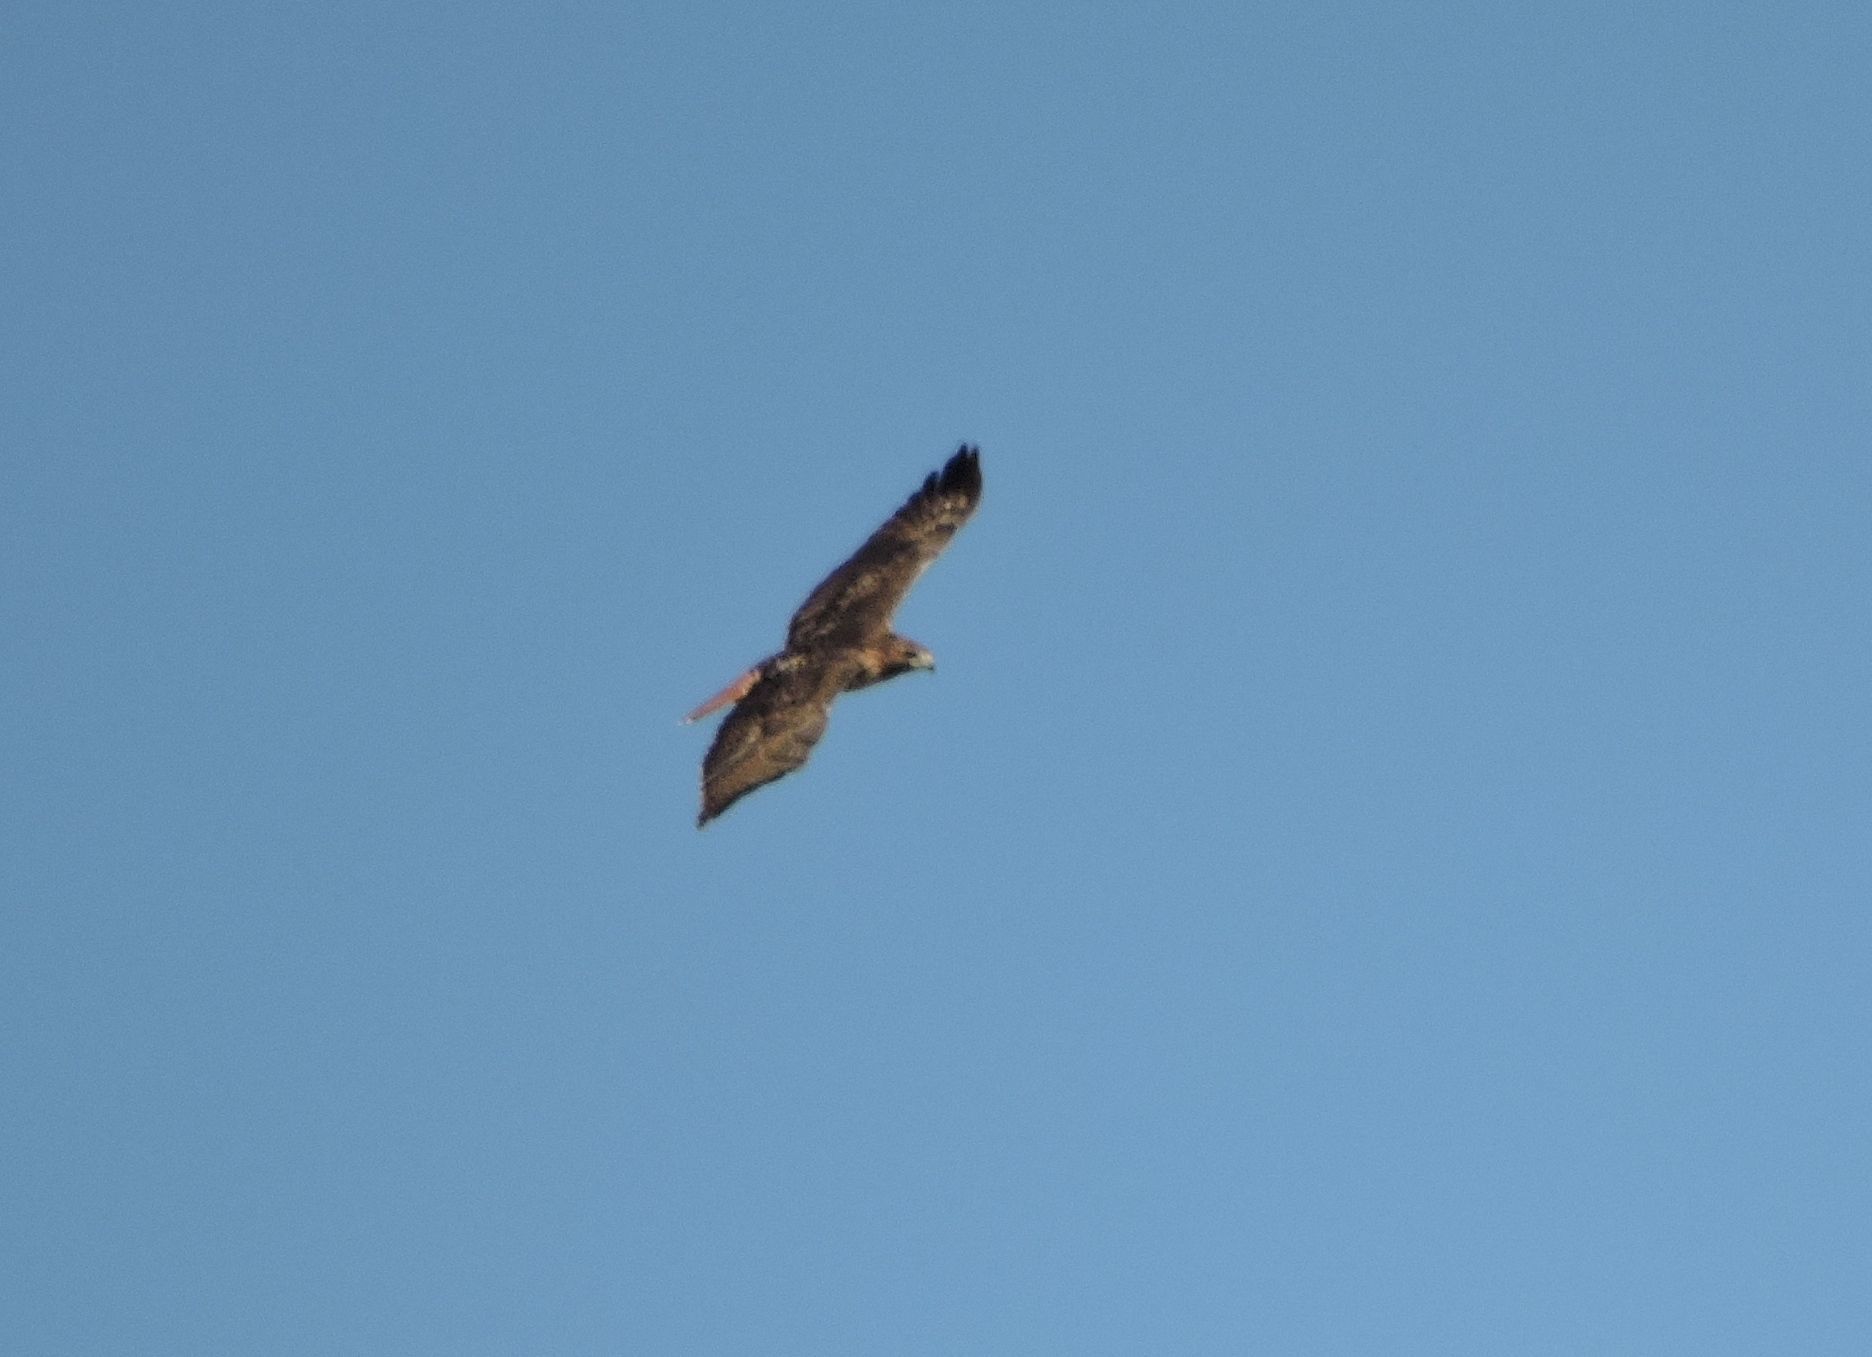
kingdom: Animalia
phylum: Chordata
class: Aves
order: Accipitriformes
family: Accipitridae
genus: Buteo
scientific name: Buteo jamaicensis
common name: Red-tailed hawk
